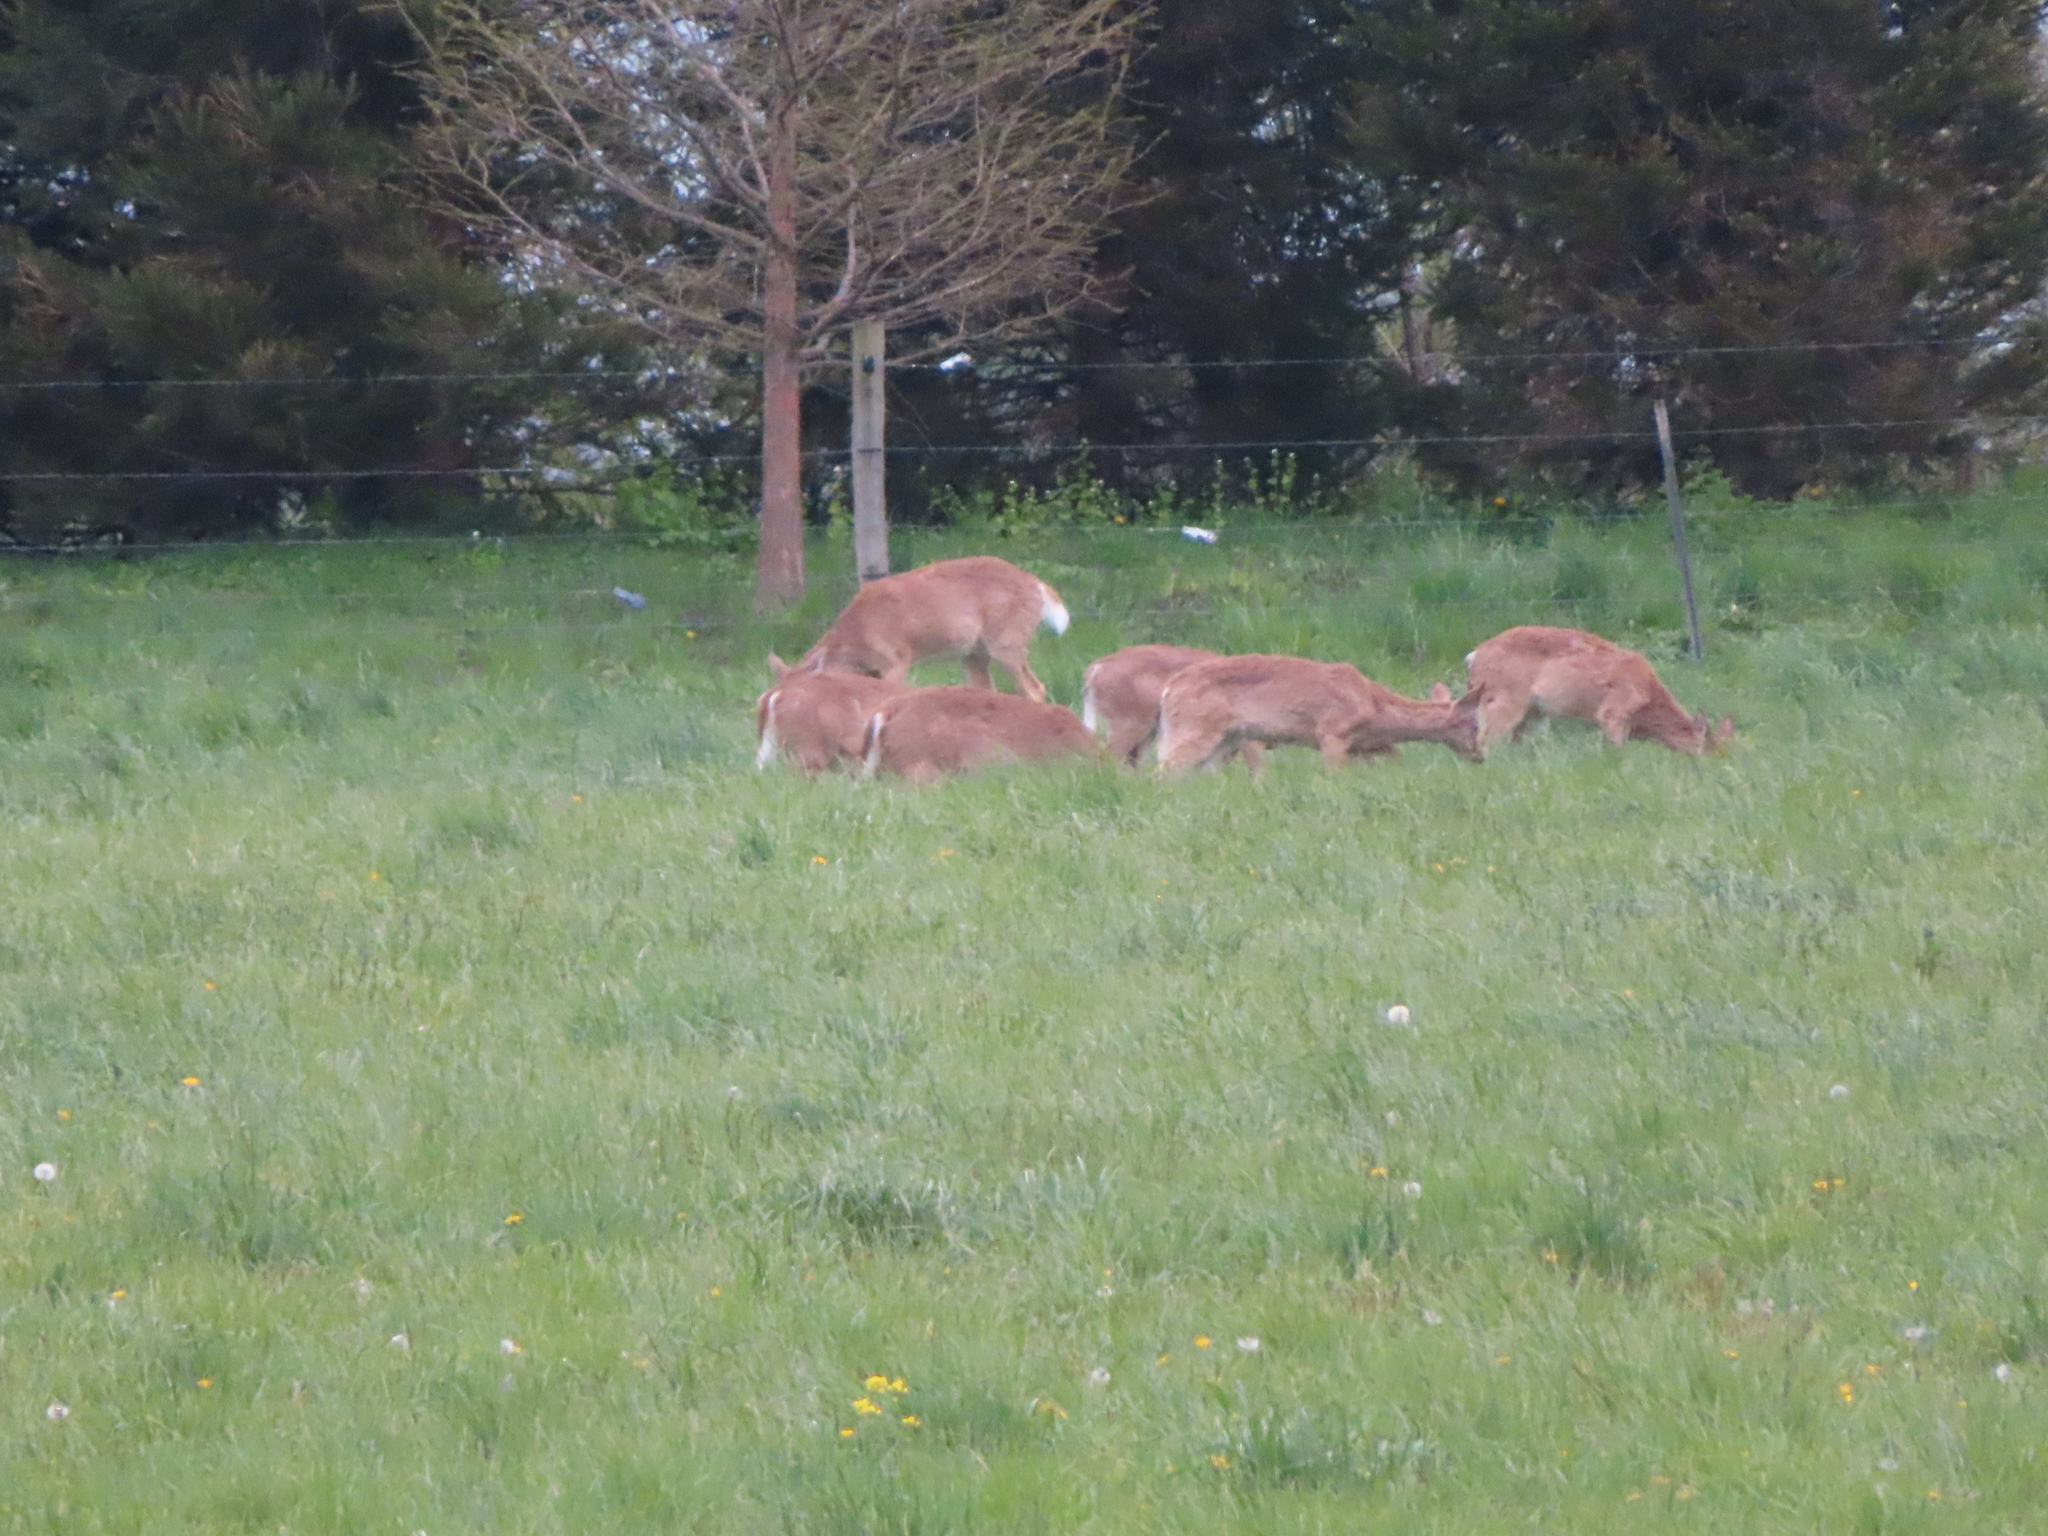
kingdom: Animalia
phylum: Chordata
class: Mammalia
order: Artiodactyla
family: Cervidae
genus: Odocoileus
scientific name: Odocoileus virginianus
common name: White-tailed deer
